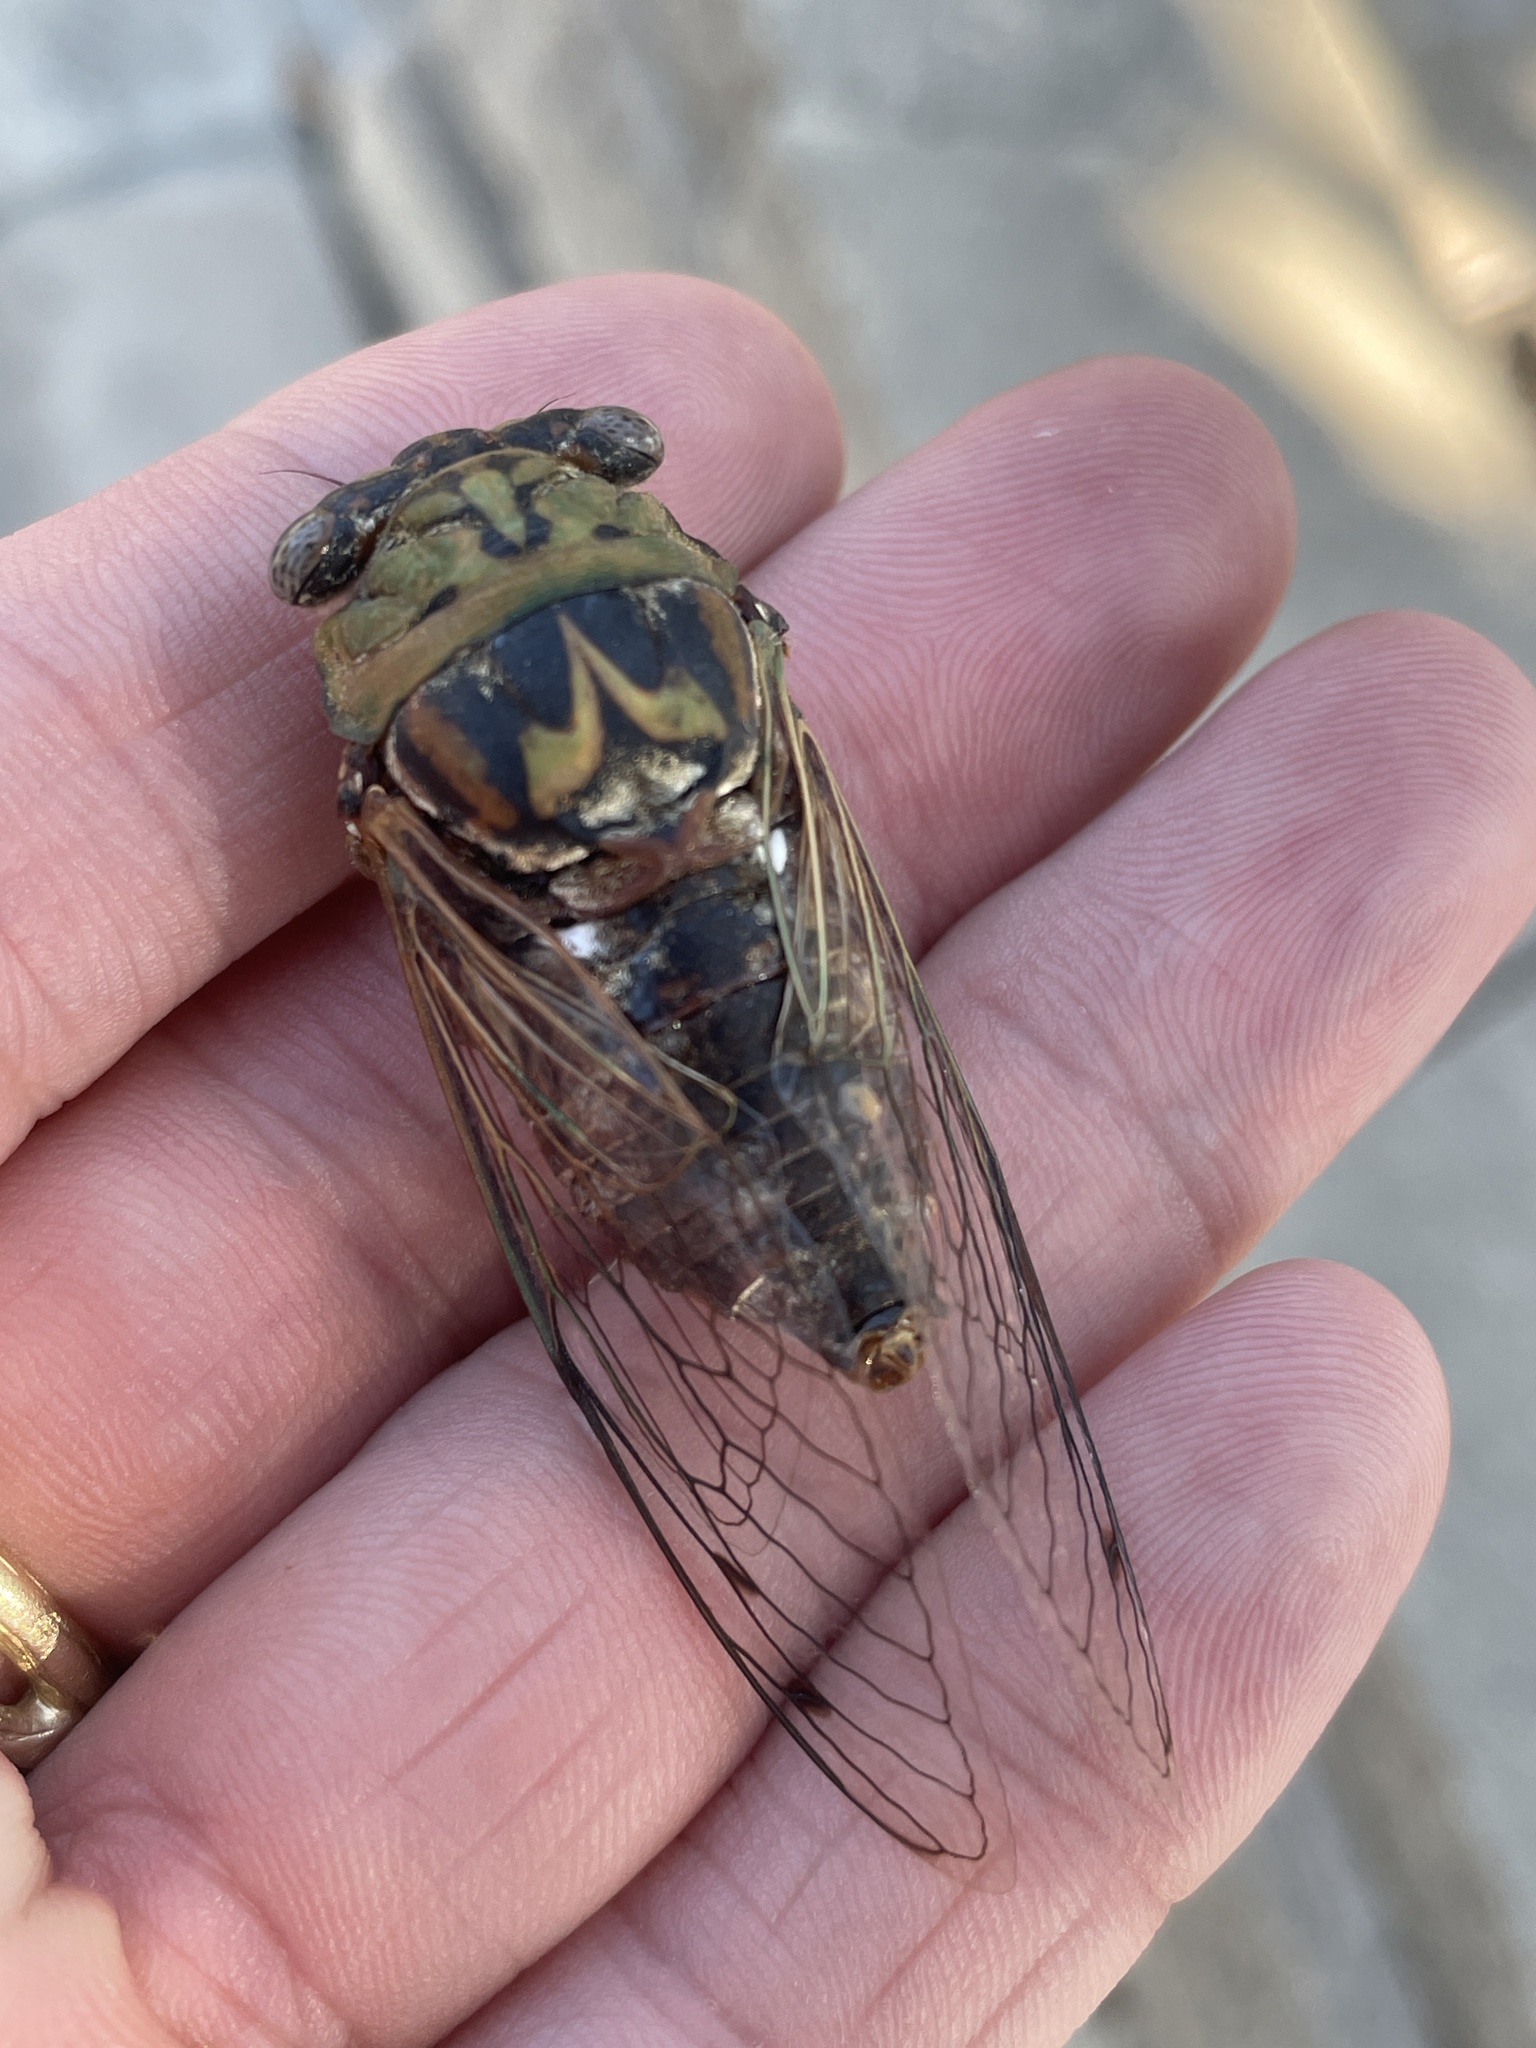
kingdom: Animalia
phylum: Arthropoda
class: Insecta
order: Hemiptera
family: Cicadidae
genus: Megatibicen
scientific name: Megatibicen resh
